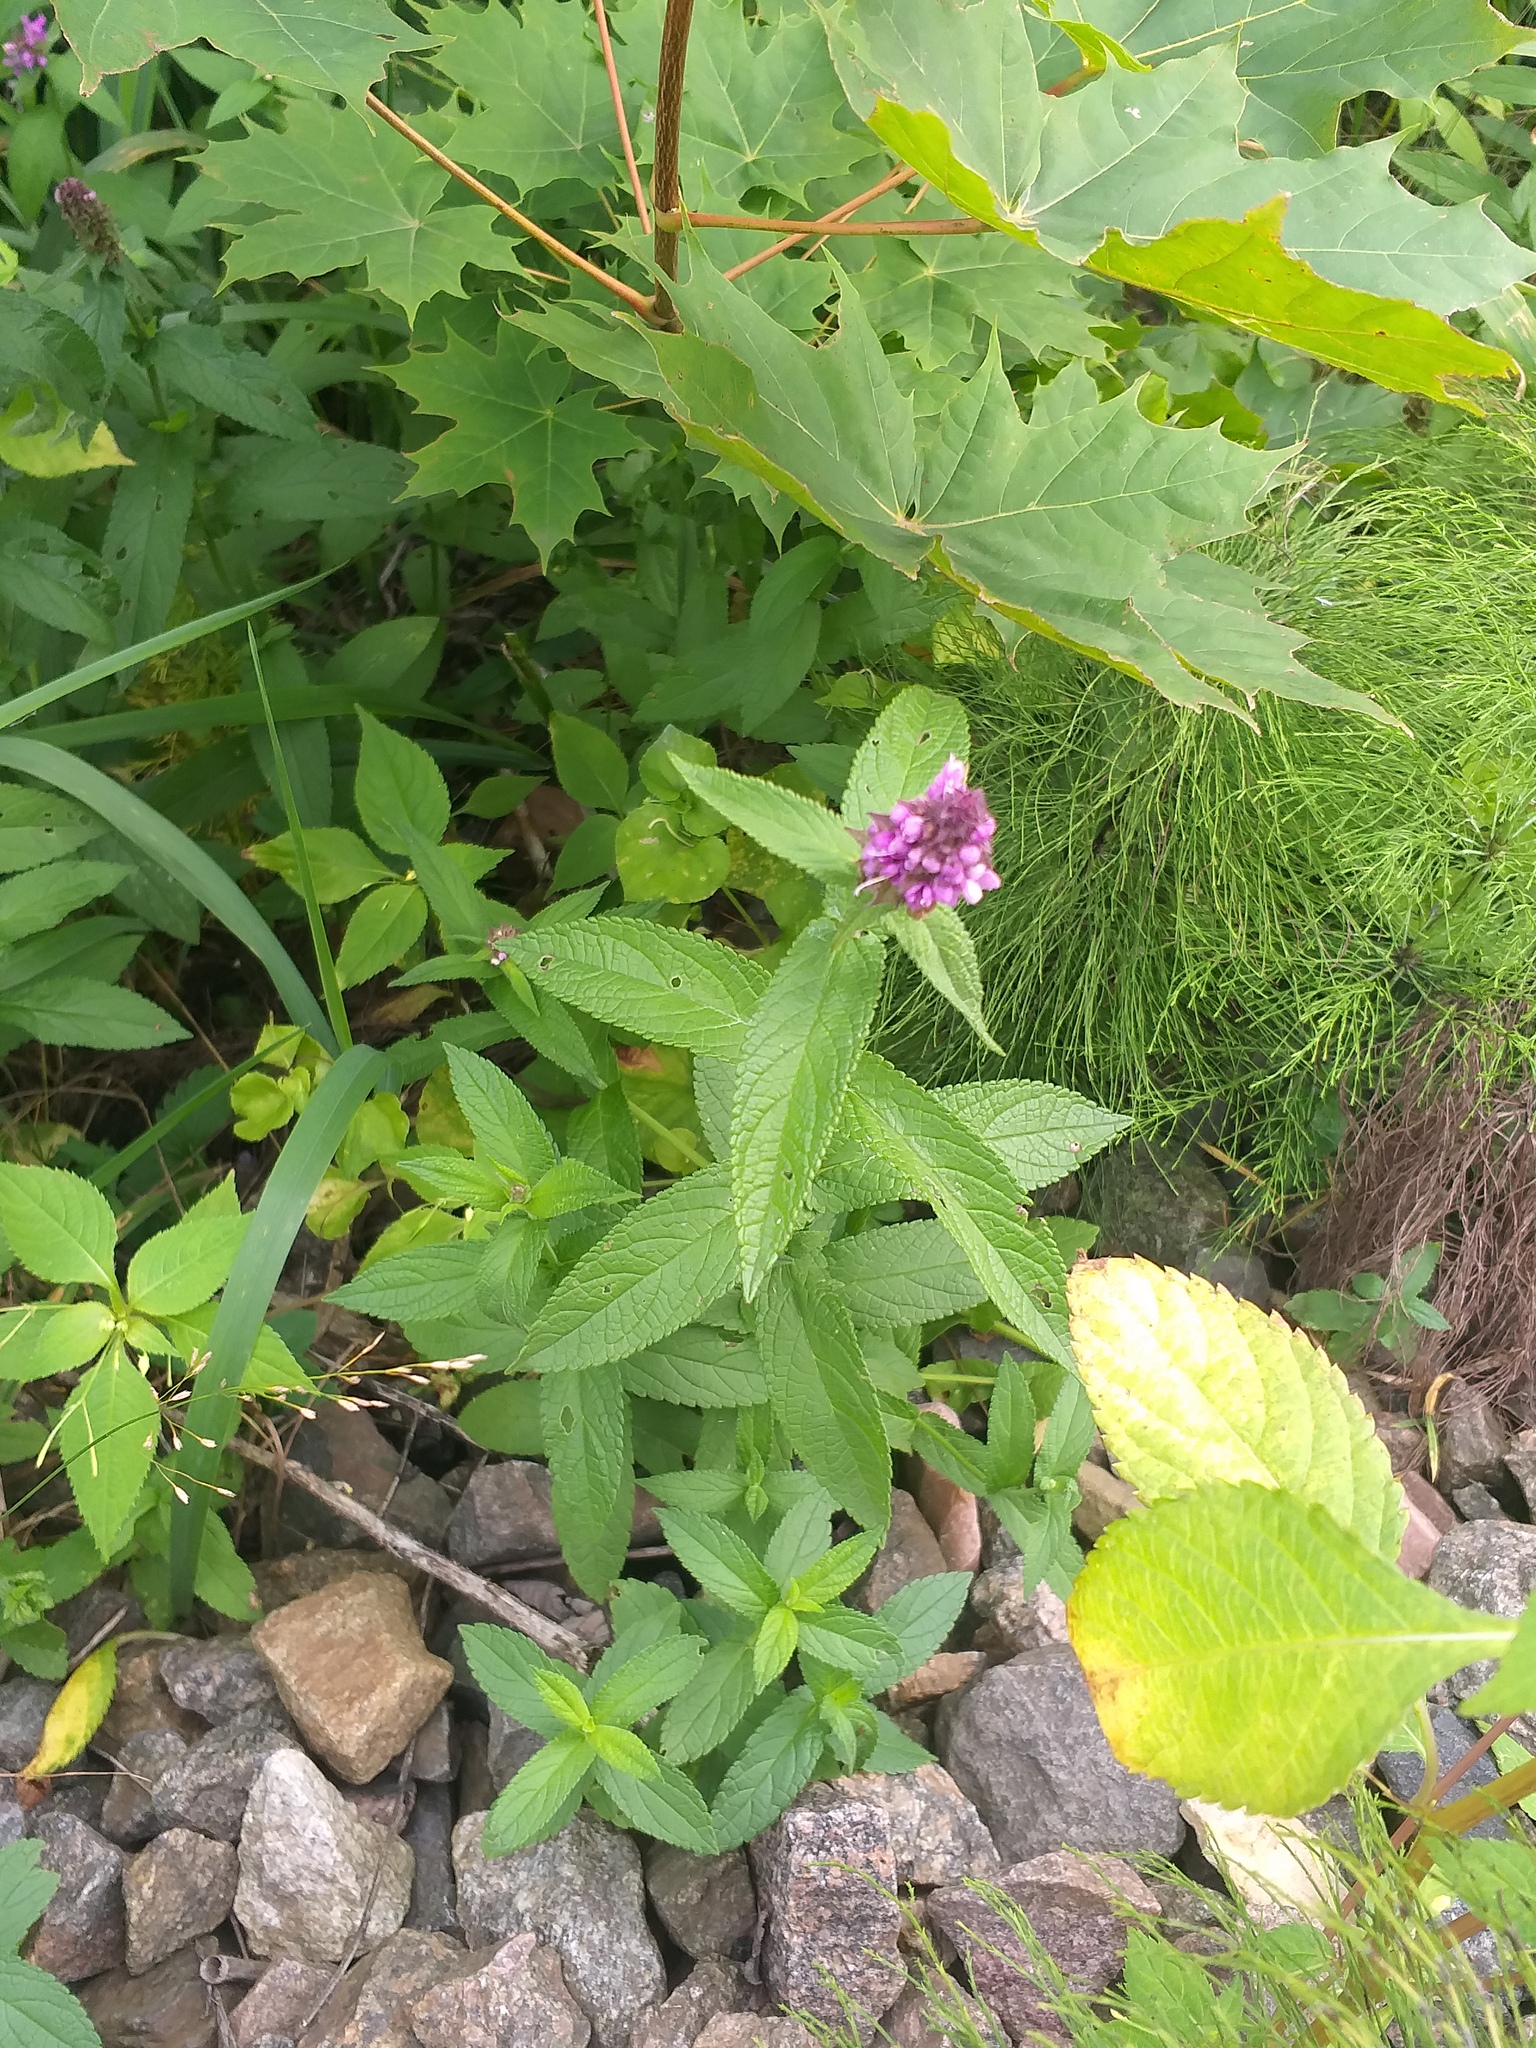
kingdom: Plantae
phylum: Tracheophyta
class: Magnoliopsida
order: Lamiales
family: Lamiaceae
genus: Stachys
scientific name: Stachys palustris
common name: Marsh woundwort
